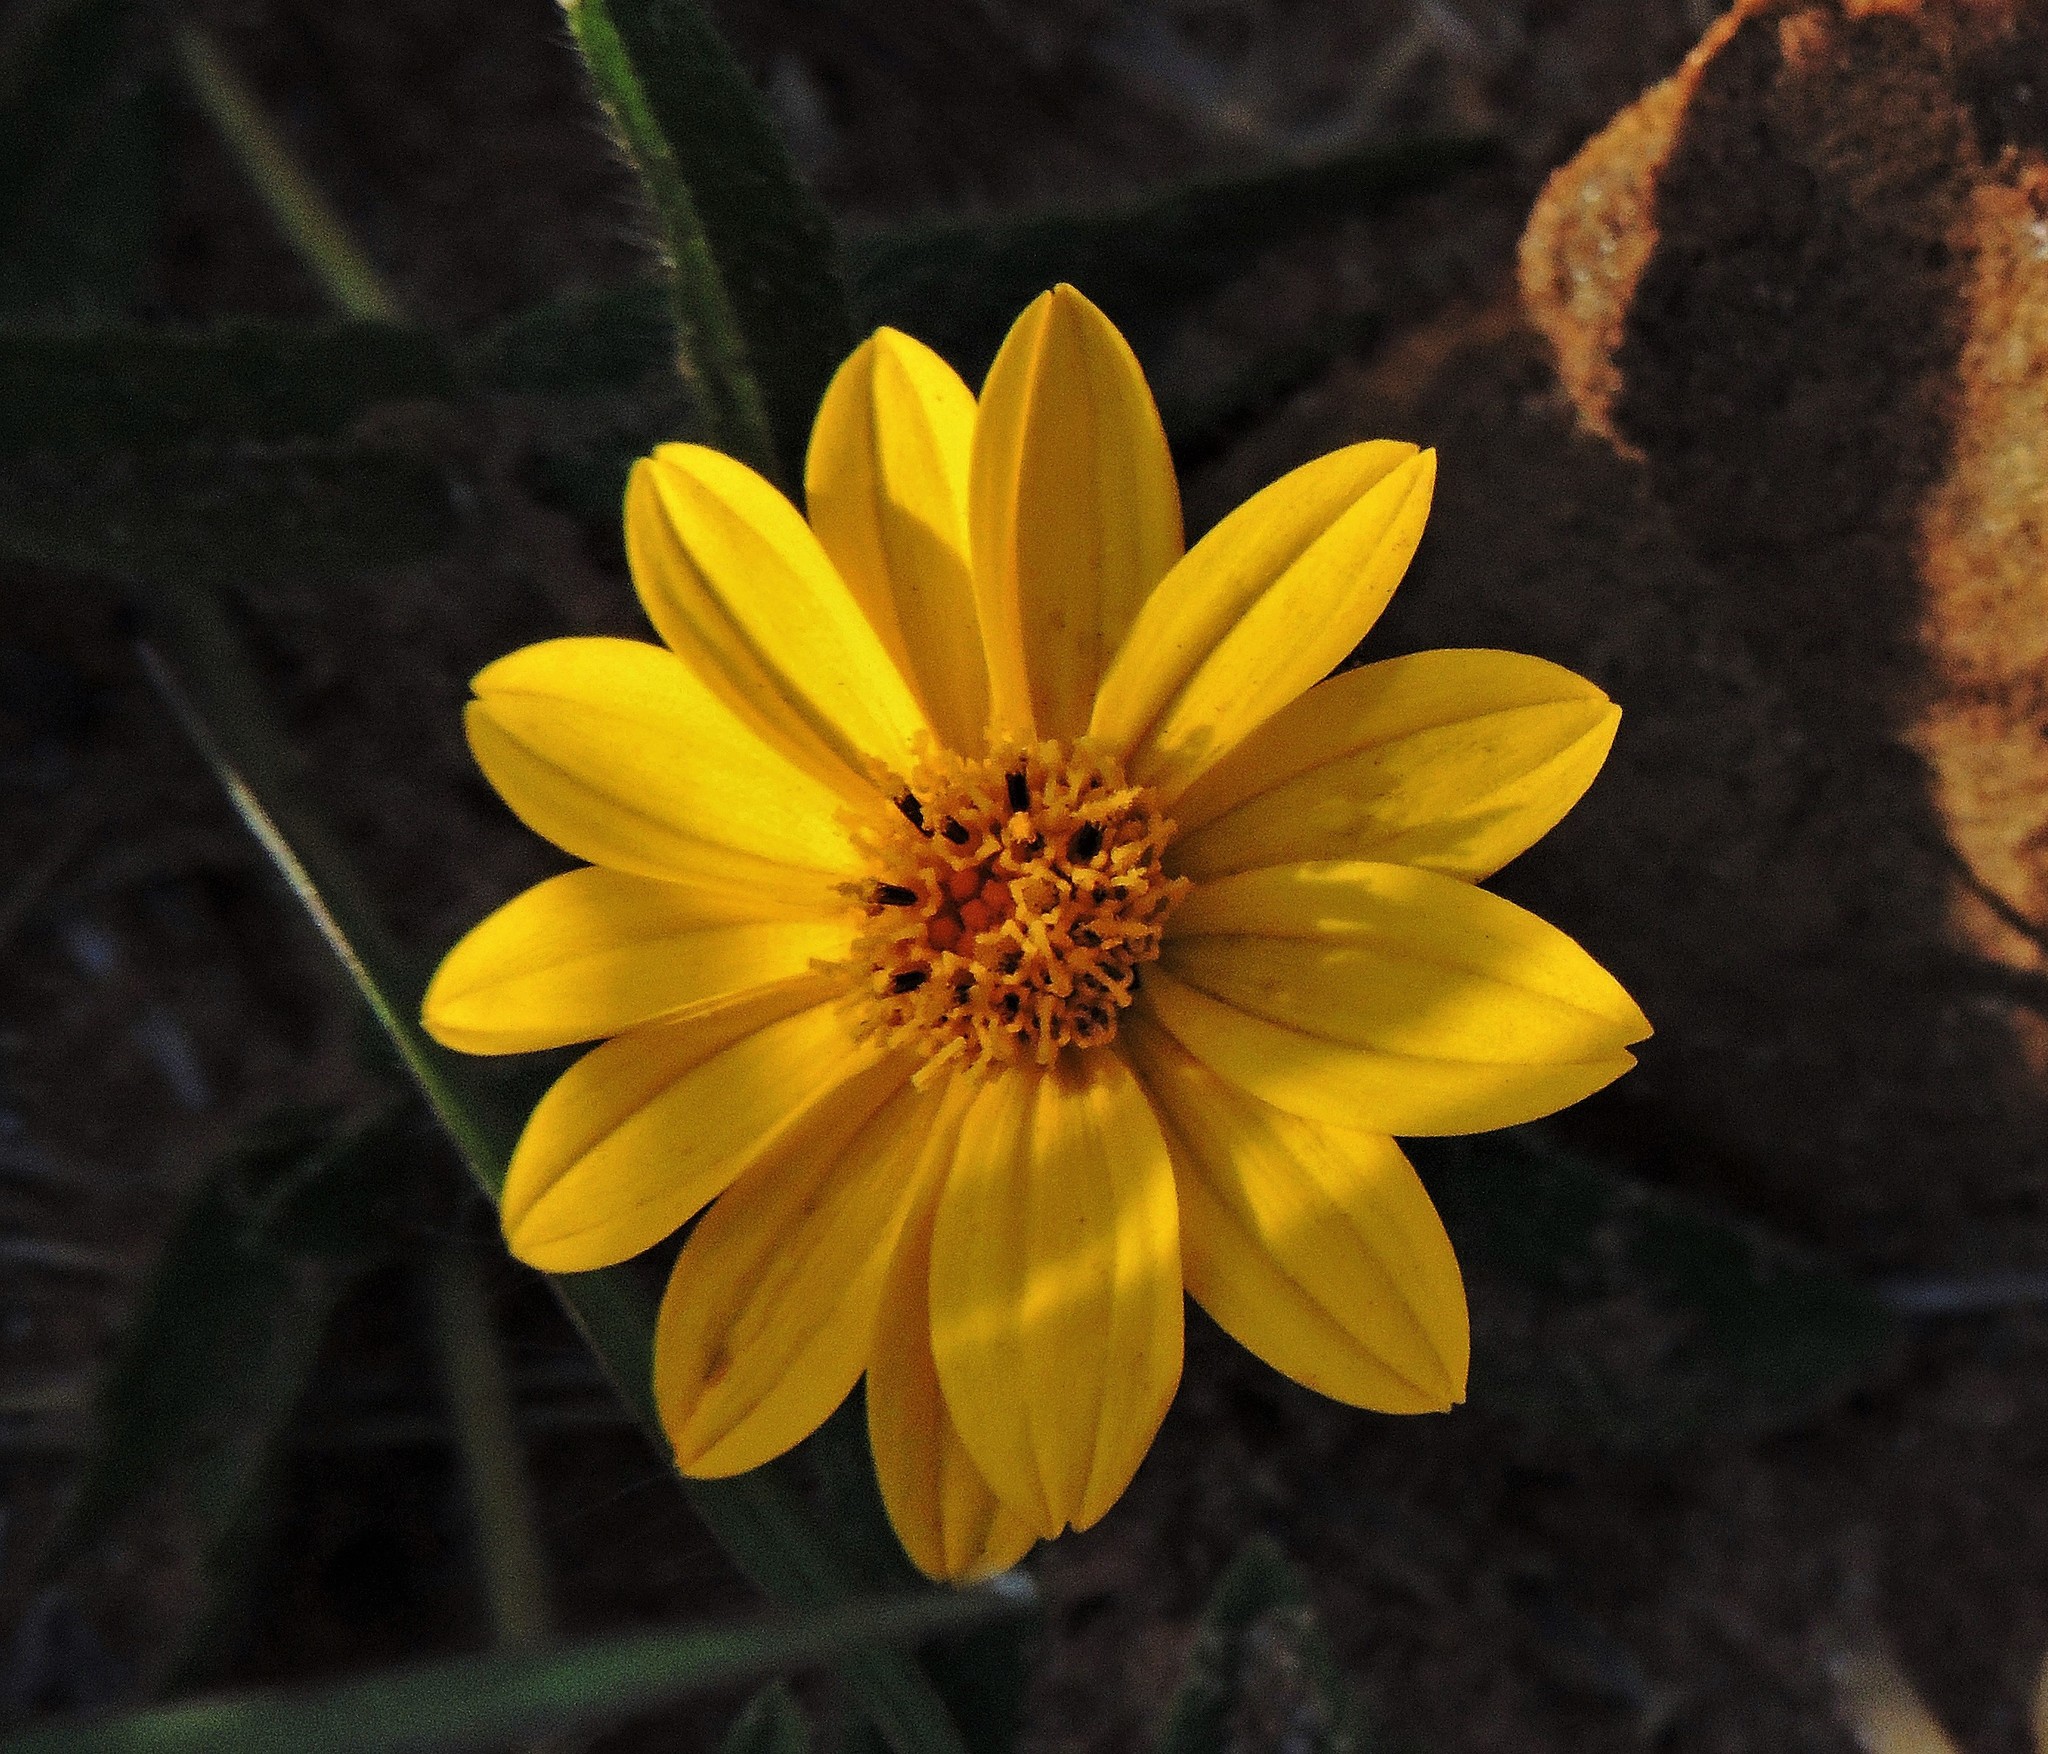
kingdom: Plantae
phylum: Tracheophyta
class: Magnoliopsida
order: Asterales
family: Asteraceae
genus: Wedelia
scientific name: Wedelia montevidensis
